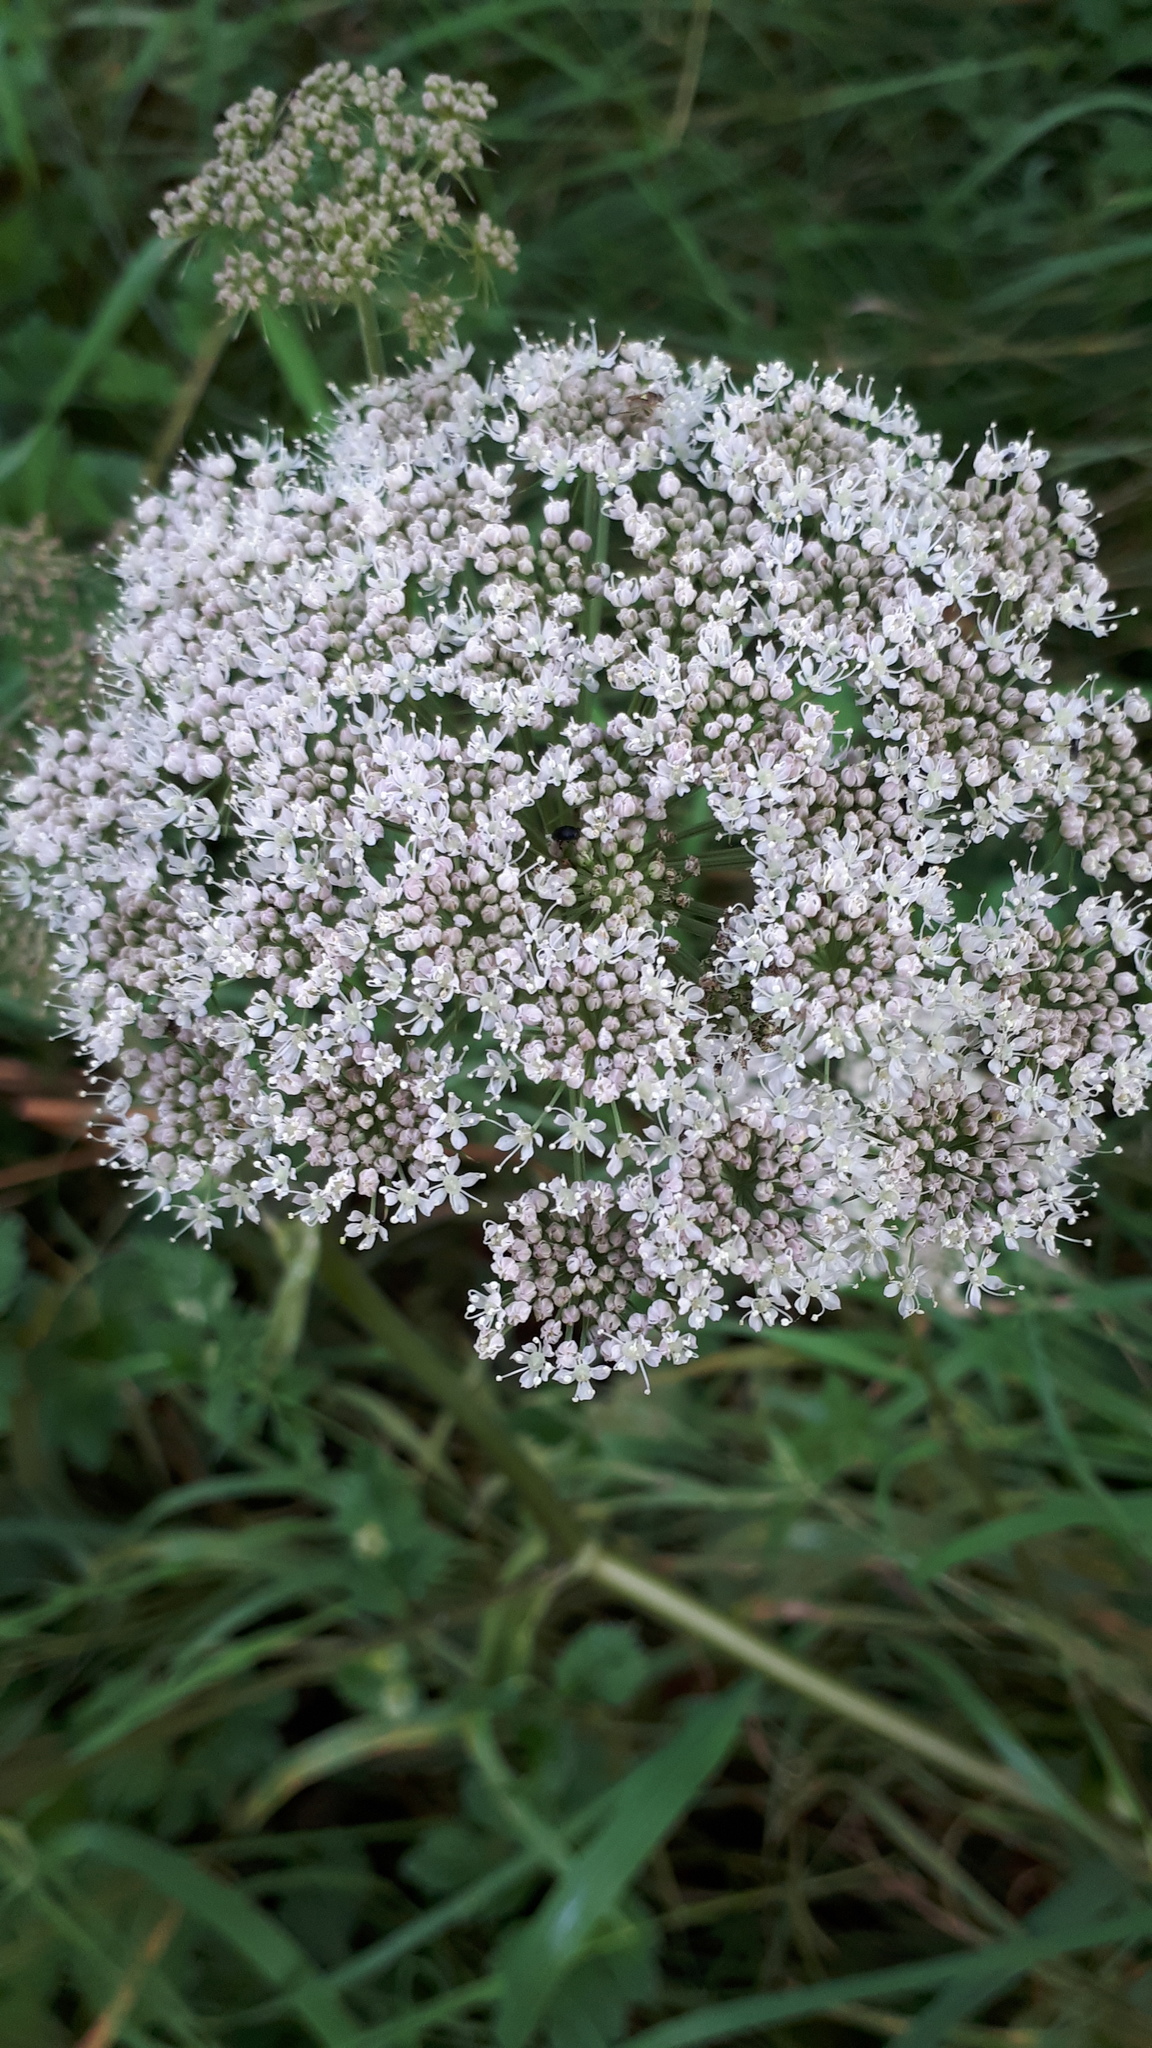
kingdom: Plantae
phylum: Tracheophyta
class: Magnoliopsida
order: Apiales
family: Apiaceae
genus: Angelica
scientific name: Angelica sylvestris
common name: Wild angelica
